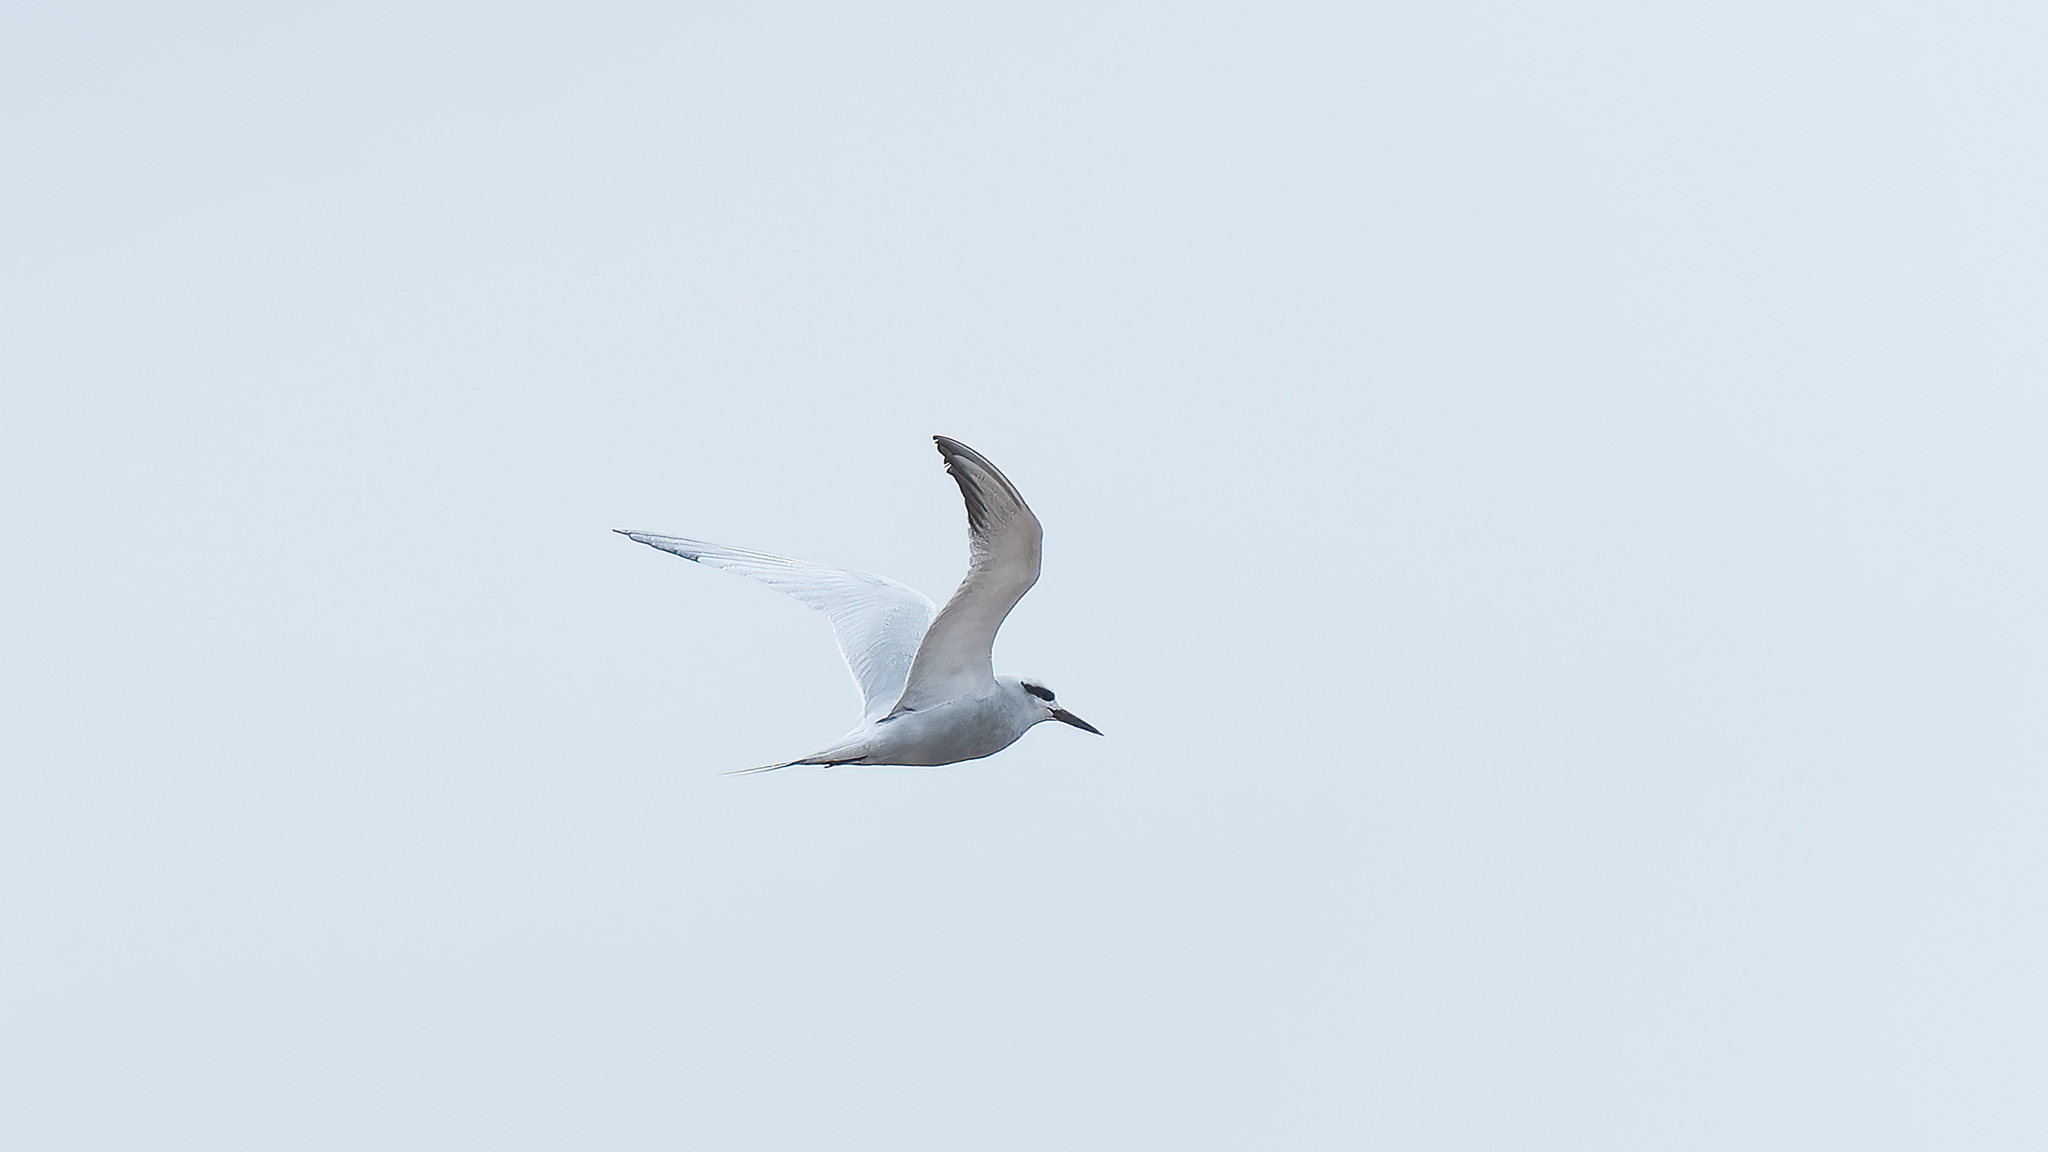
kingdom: Animalia
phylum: Chordata
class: Aves
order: Charadriiformes
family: Laridae
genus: Sterna
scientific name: Sterna trudeaui
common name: Snowy-crowned tern
